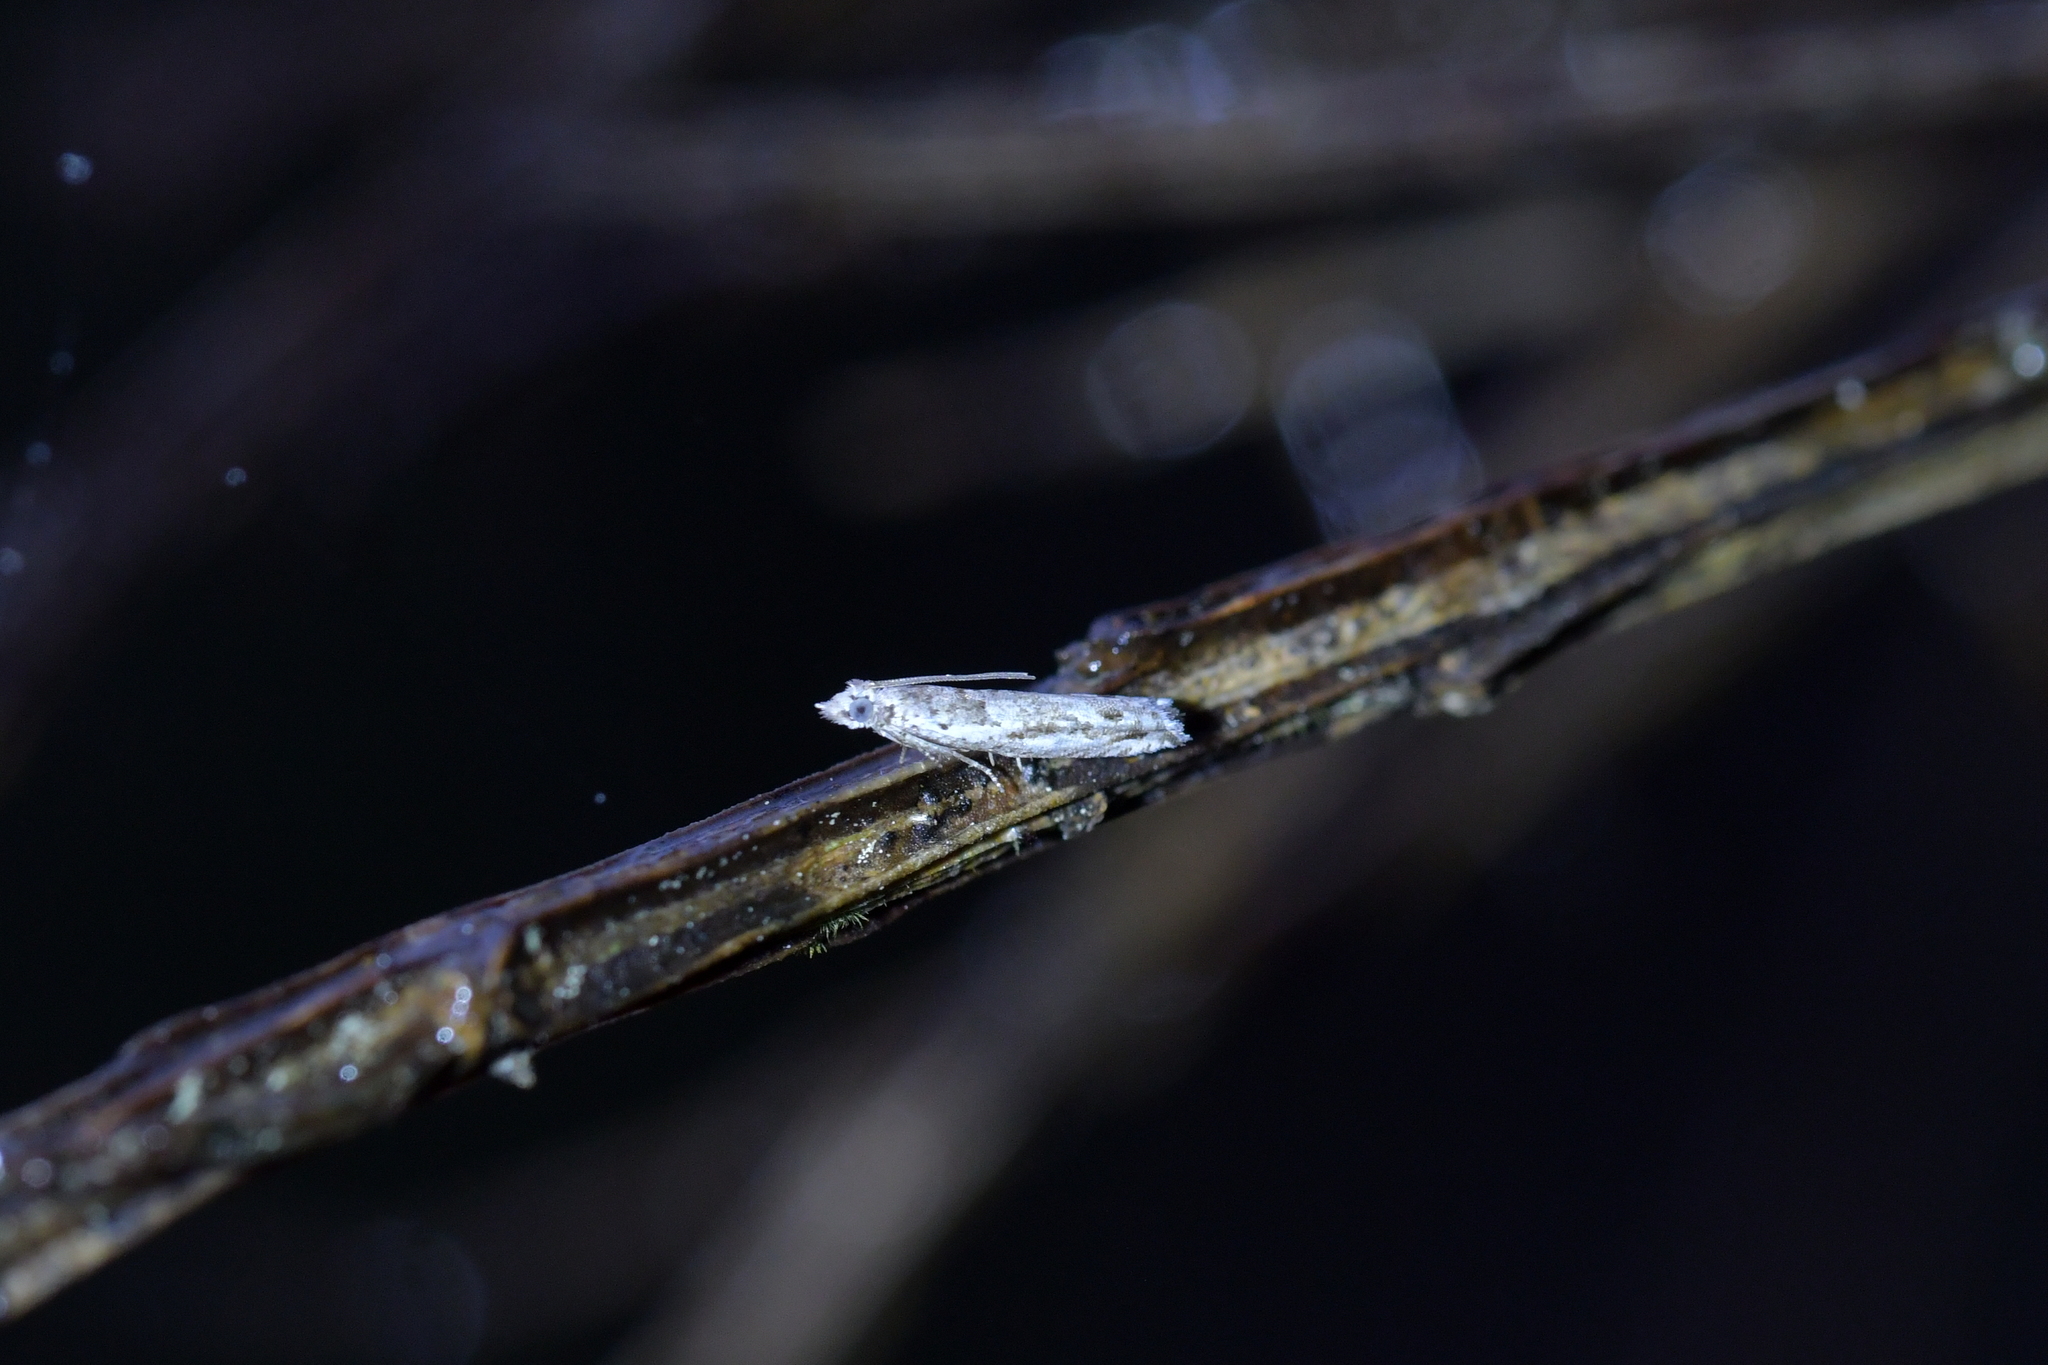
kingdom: Animalia
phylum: Arthropoda
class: Insecta
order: Lepidoptera
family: Tortricidae
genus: Holocola
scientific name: Holocola
